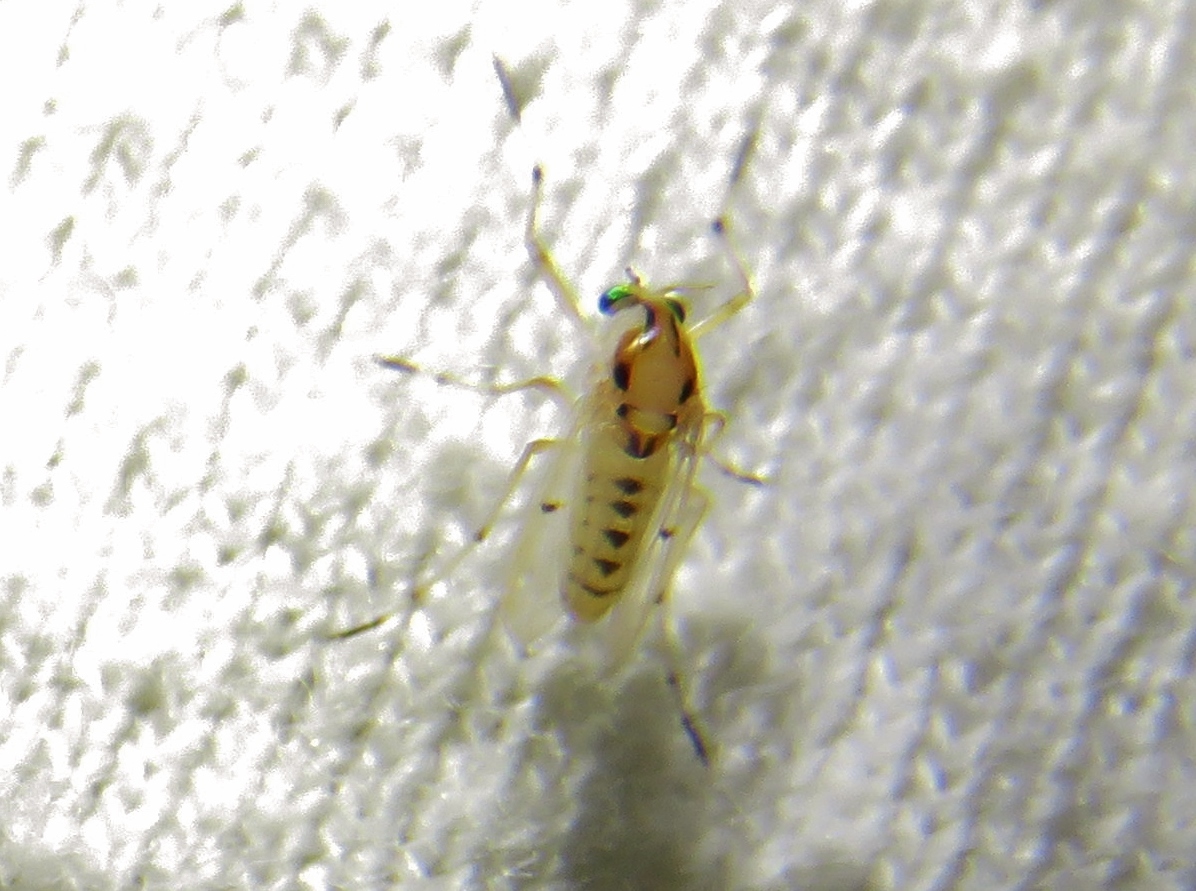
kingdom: Animalia
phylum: Arthropoda
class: Insecta
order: Diptera
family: Chironomidae
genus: Coelotanypus
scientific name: Coelotanypus concinnus
